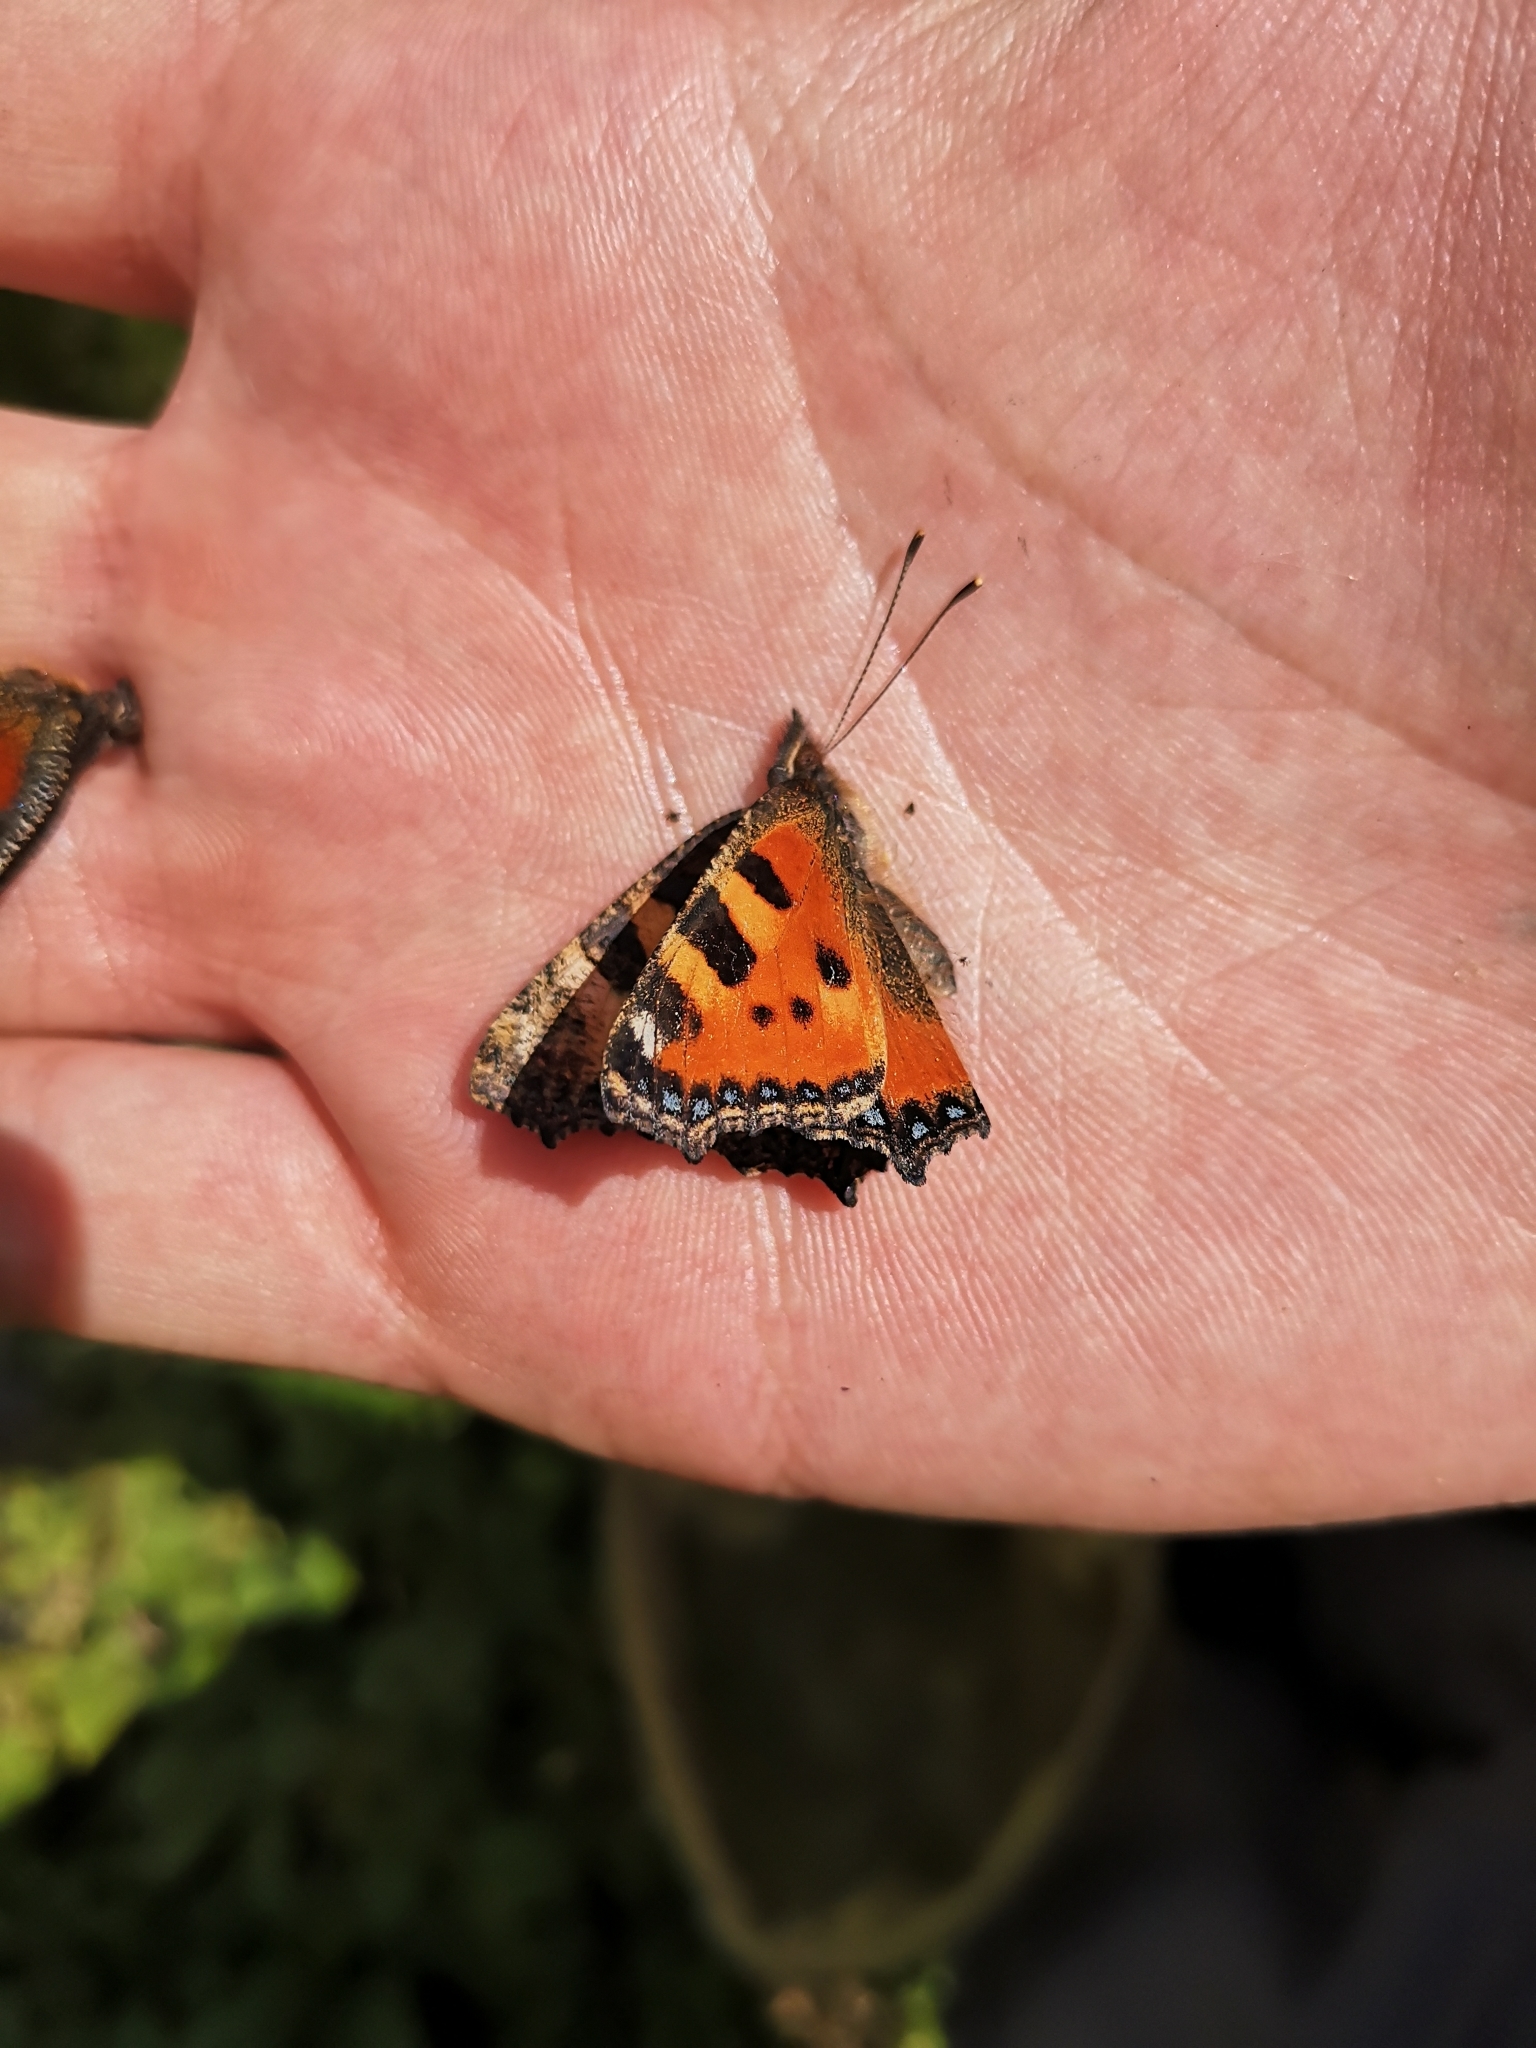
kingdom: Animalia
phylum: Arthropoda
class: Insecta
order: Lepidoptera
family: Nymphalidae
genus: Aglais
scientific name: Aglais urticae
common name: Small tortoiseshell
